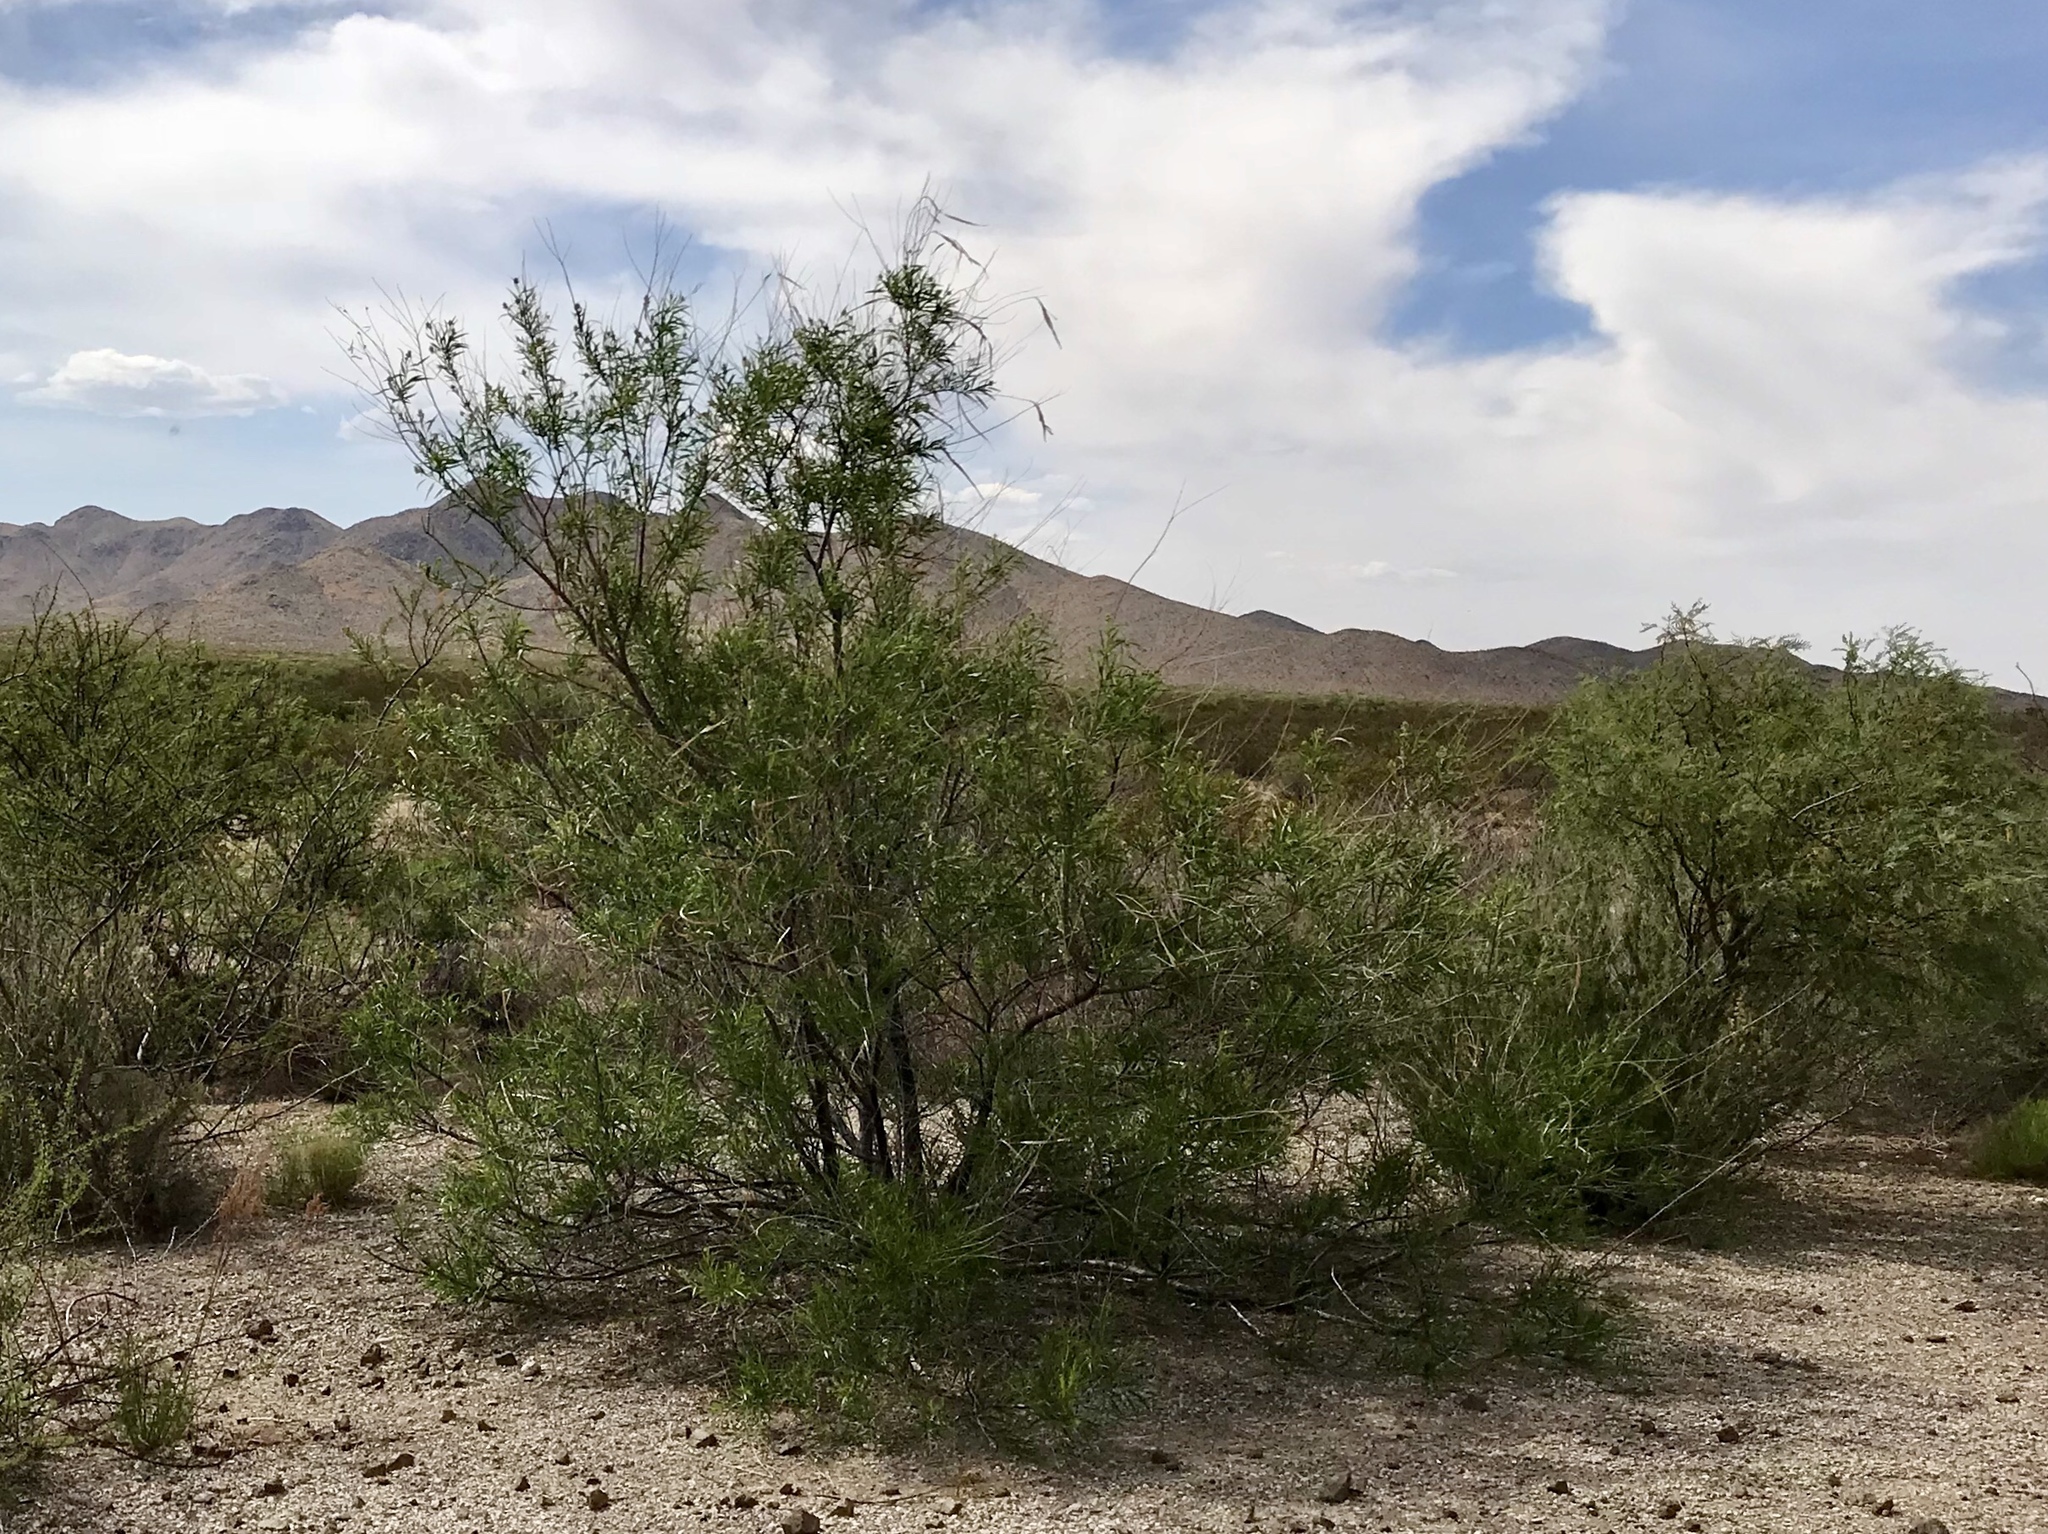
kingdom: Plantae
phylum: Tracheophyta
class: Magnoliopsida
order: Lamiales
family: Bignoniaceae
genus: Chilopsis
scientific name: Chilopsis linearis
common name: Desert-willow
